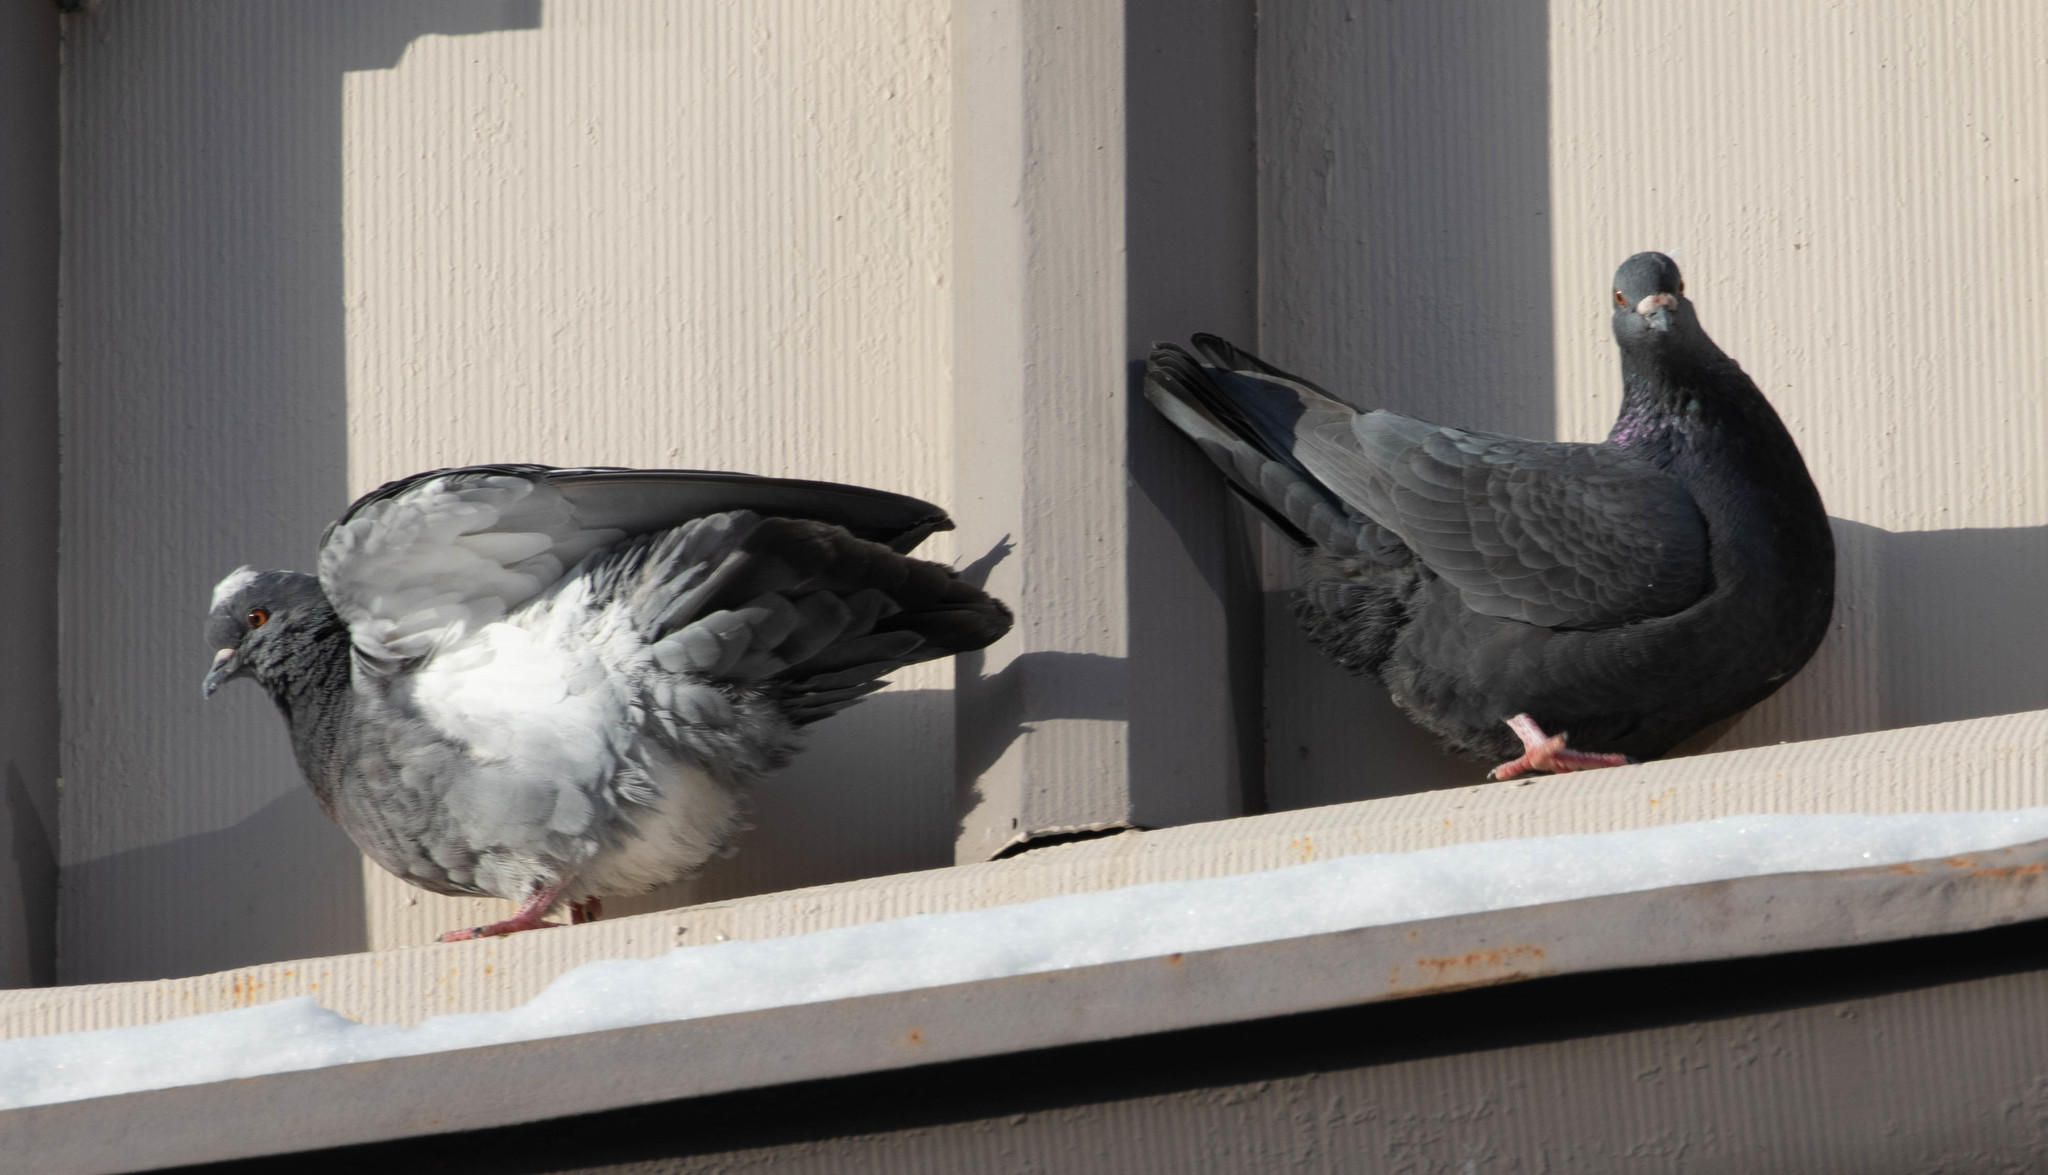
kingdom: Animalia
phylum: Chordata
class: Aves
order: Columbiformes
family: Columbidae
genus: Columba
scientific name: Columba livia
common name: Rock pigeon
